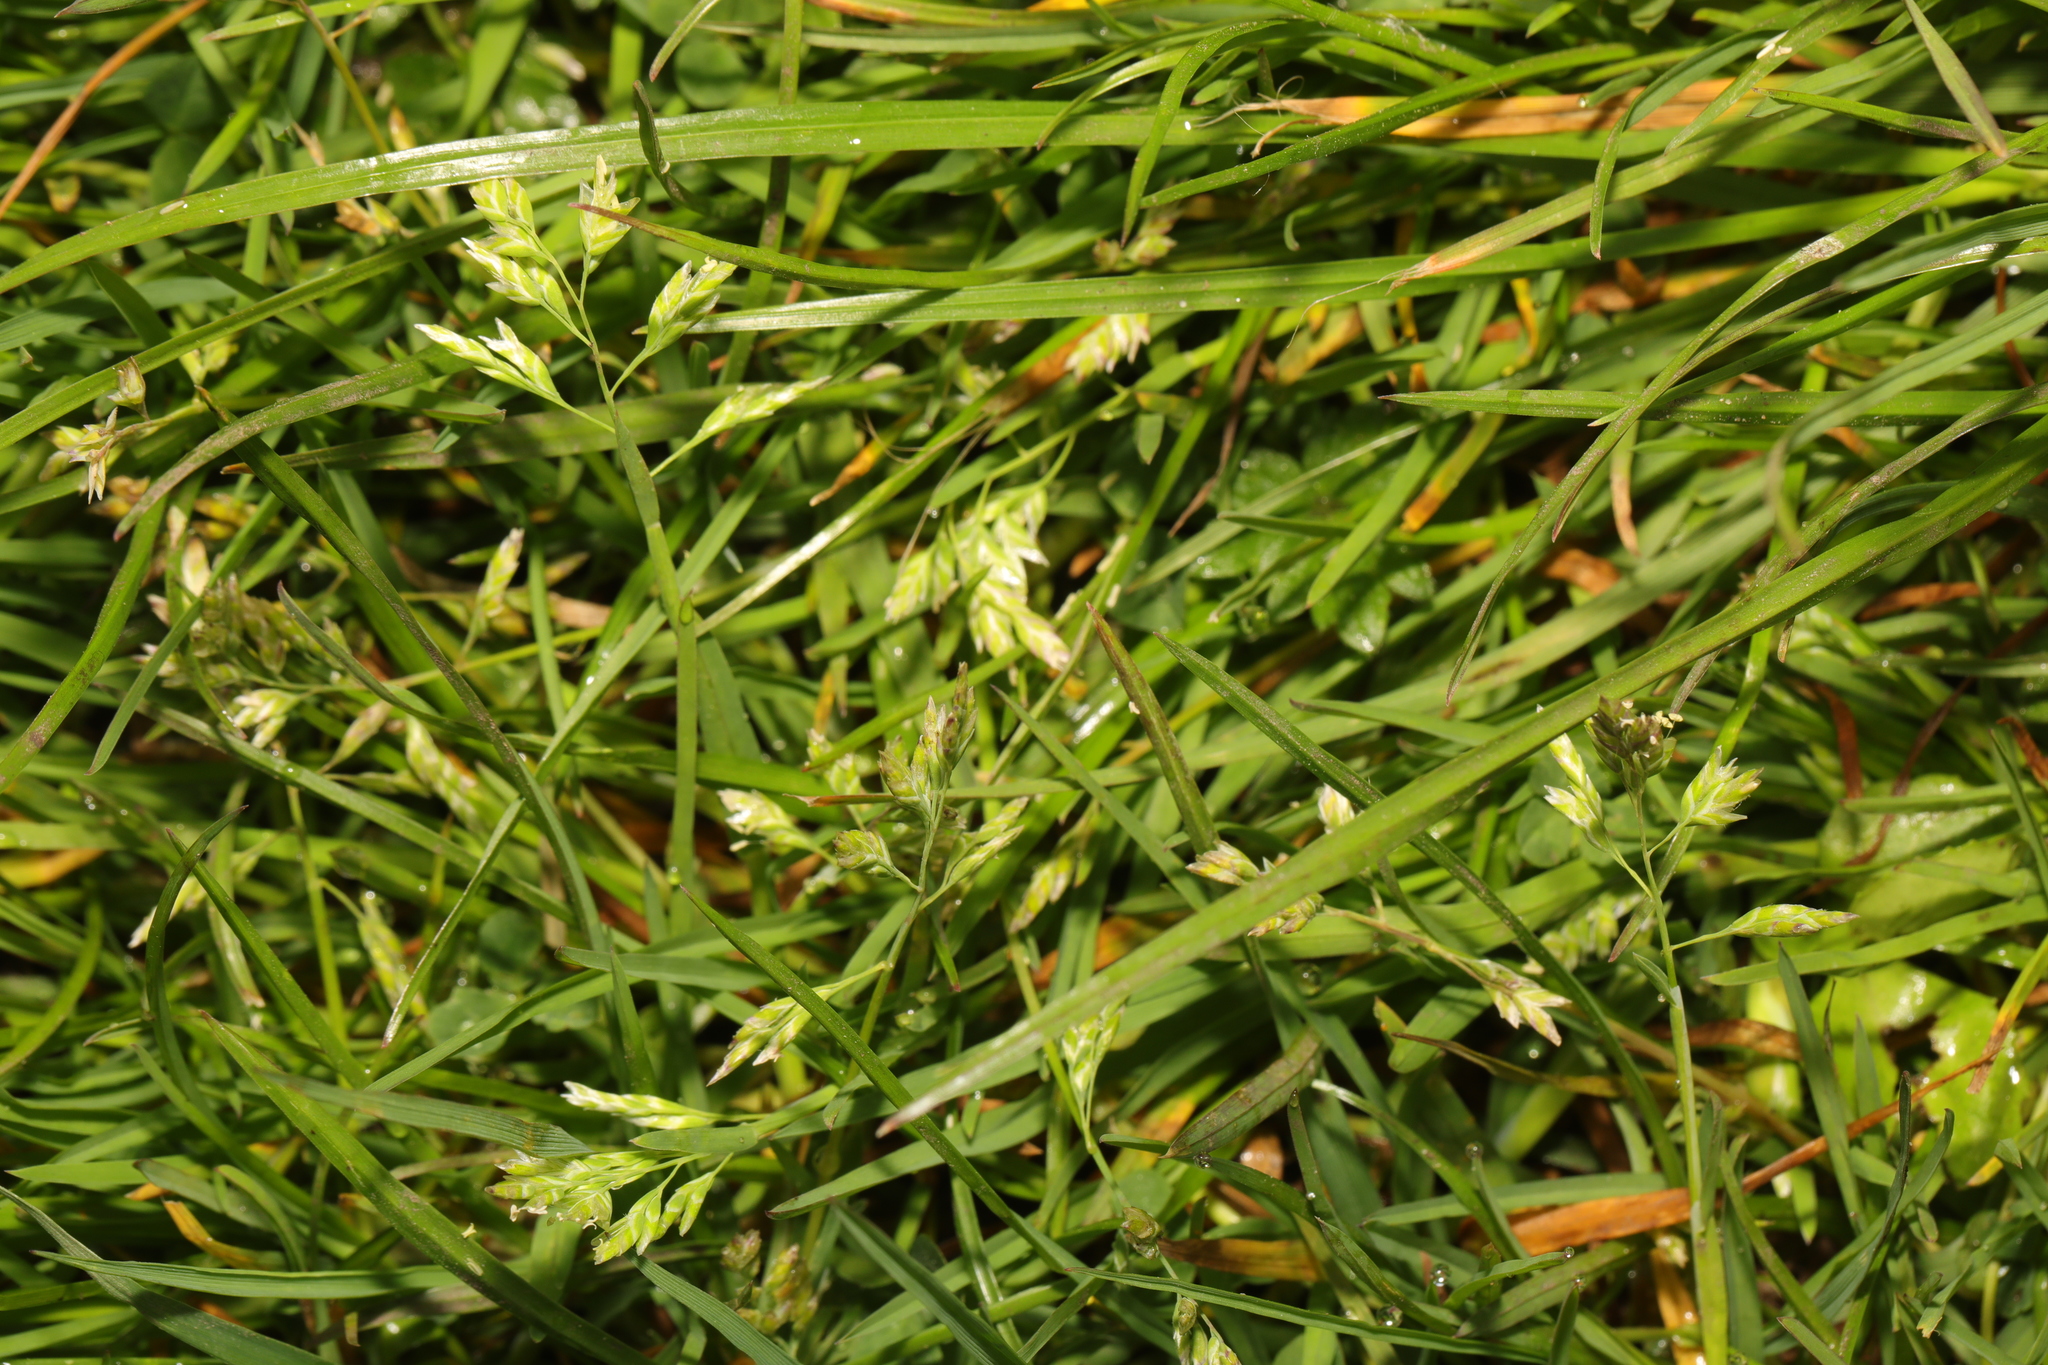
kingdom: Plantae
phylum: Tracheophyta
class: Liliopsida
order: Poales
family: Poaceae
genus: Poa
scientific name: Poa annua
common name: Annual bluegrass
